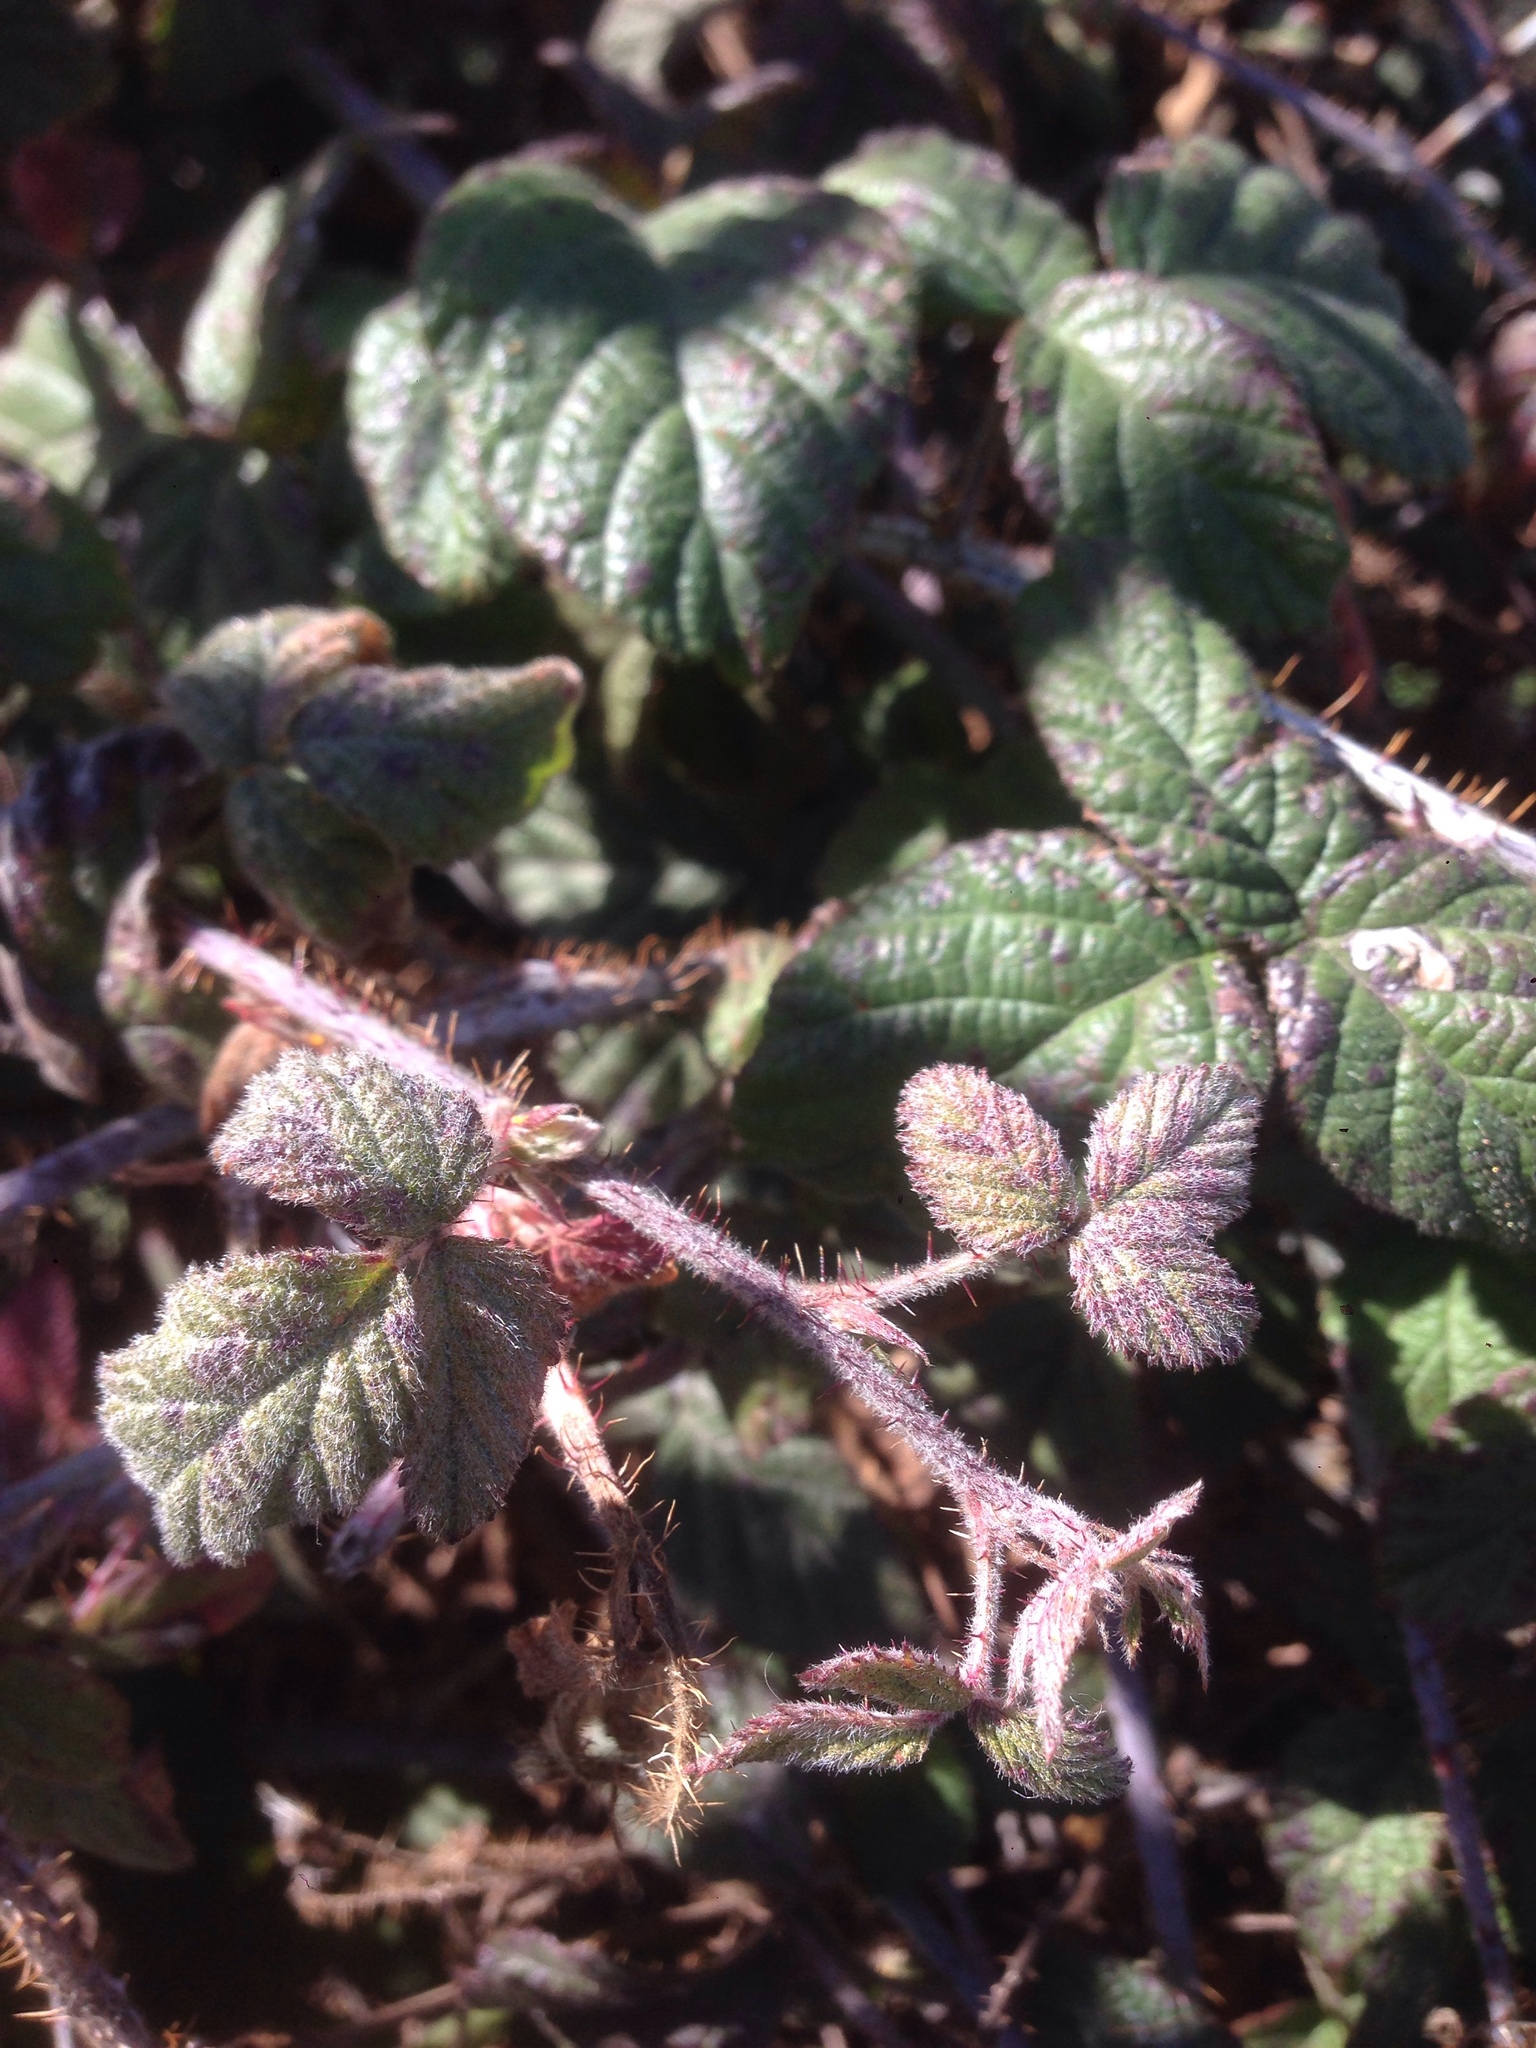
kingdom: Plantae
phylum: Tracheophyta
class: Magnoliopsida
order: Rosales
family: Rosaceae
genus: Rubus
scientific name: Rubus ursinus
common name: Pacific blackberry
